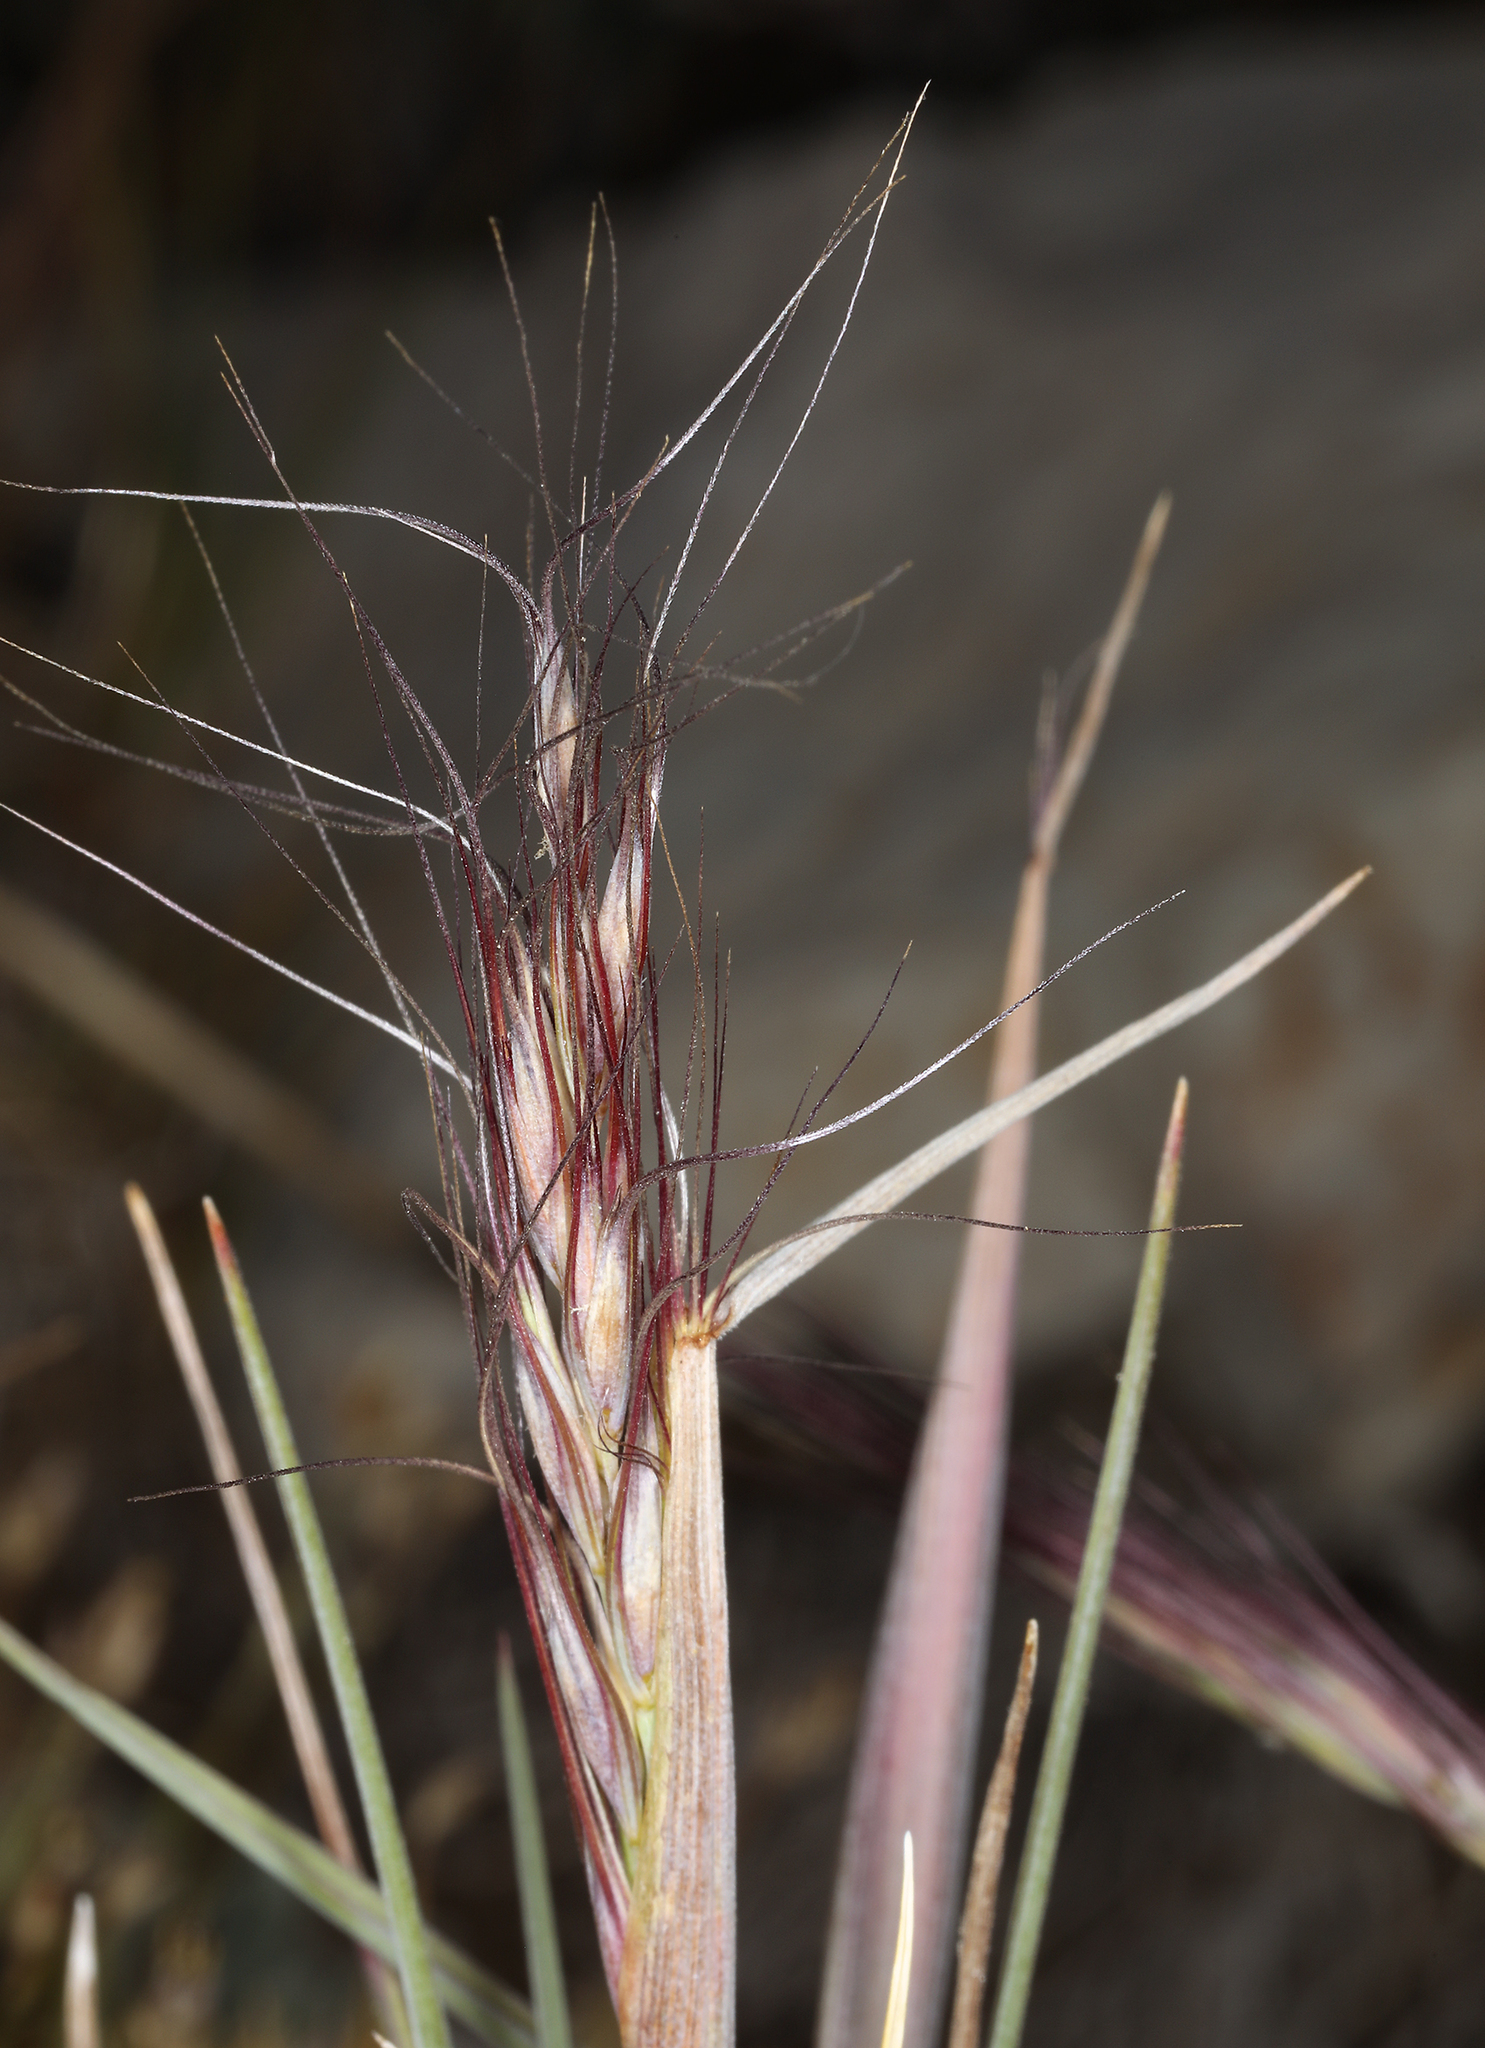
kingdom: Plantae
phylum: Tracheophyta
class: Liliopsida
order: Poales
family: Poaceae
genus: Elymus
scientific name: Elymus elymoides
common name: Bottlebrush squirreltail
